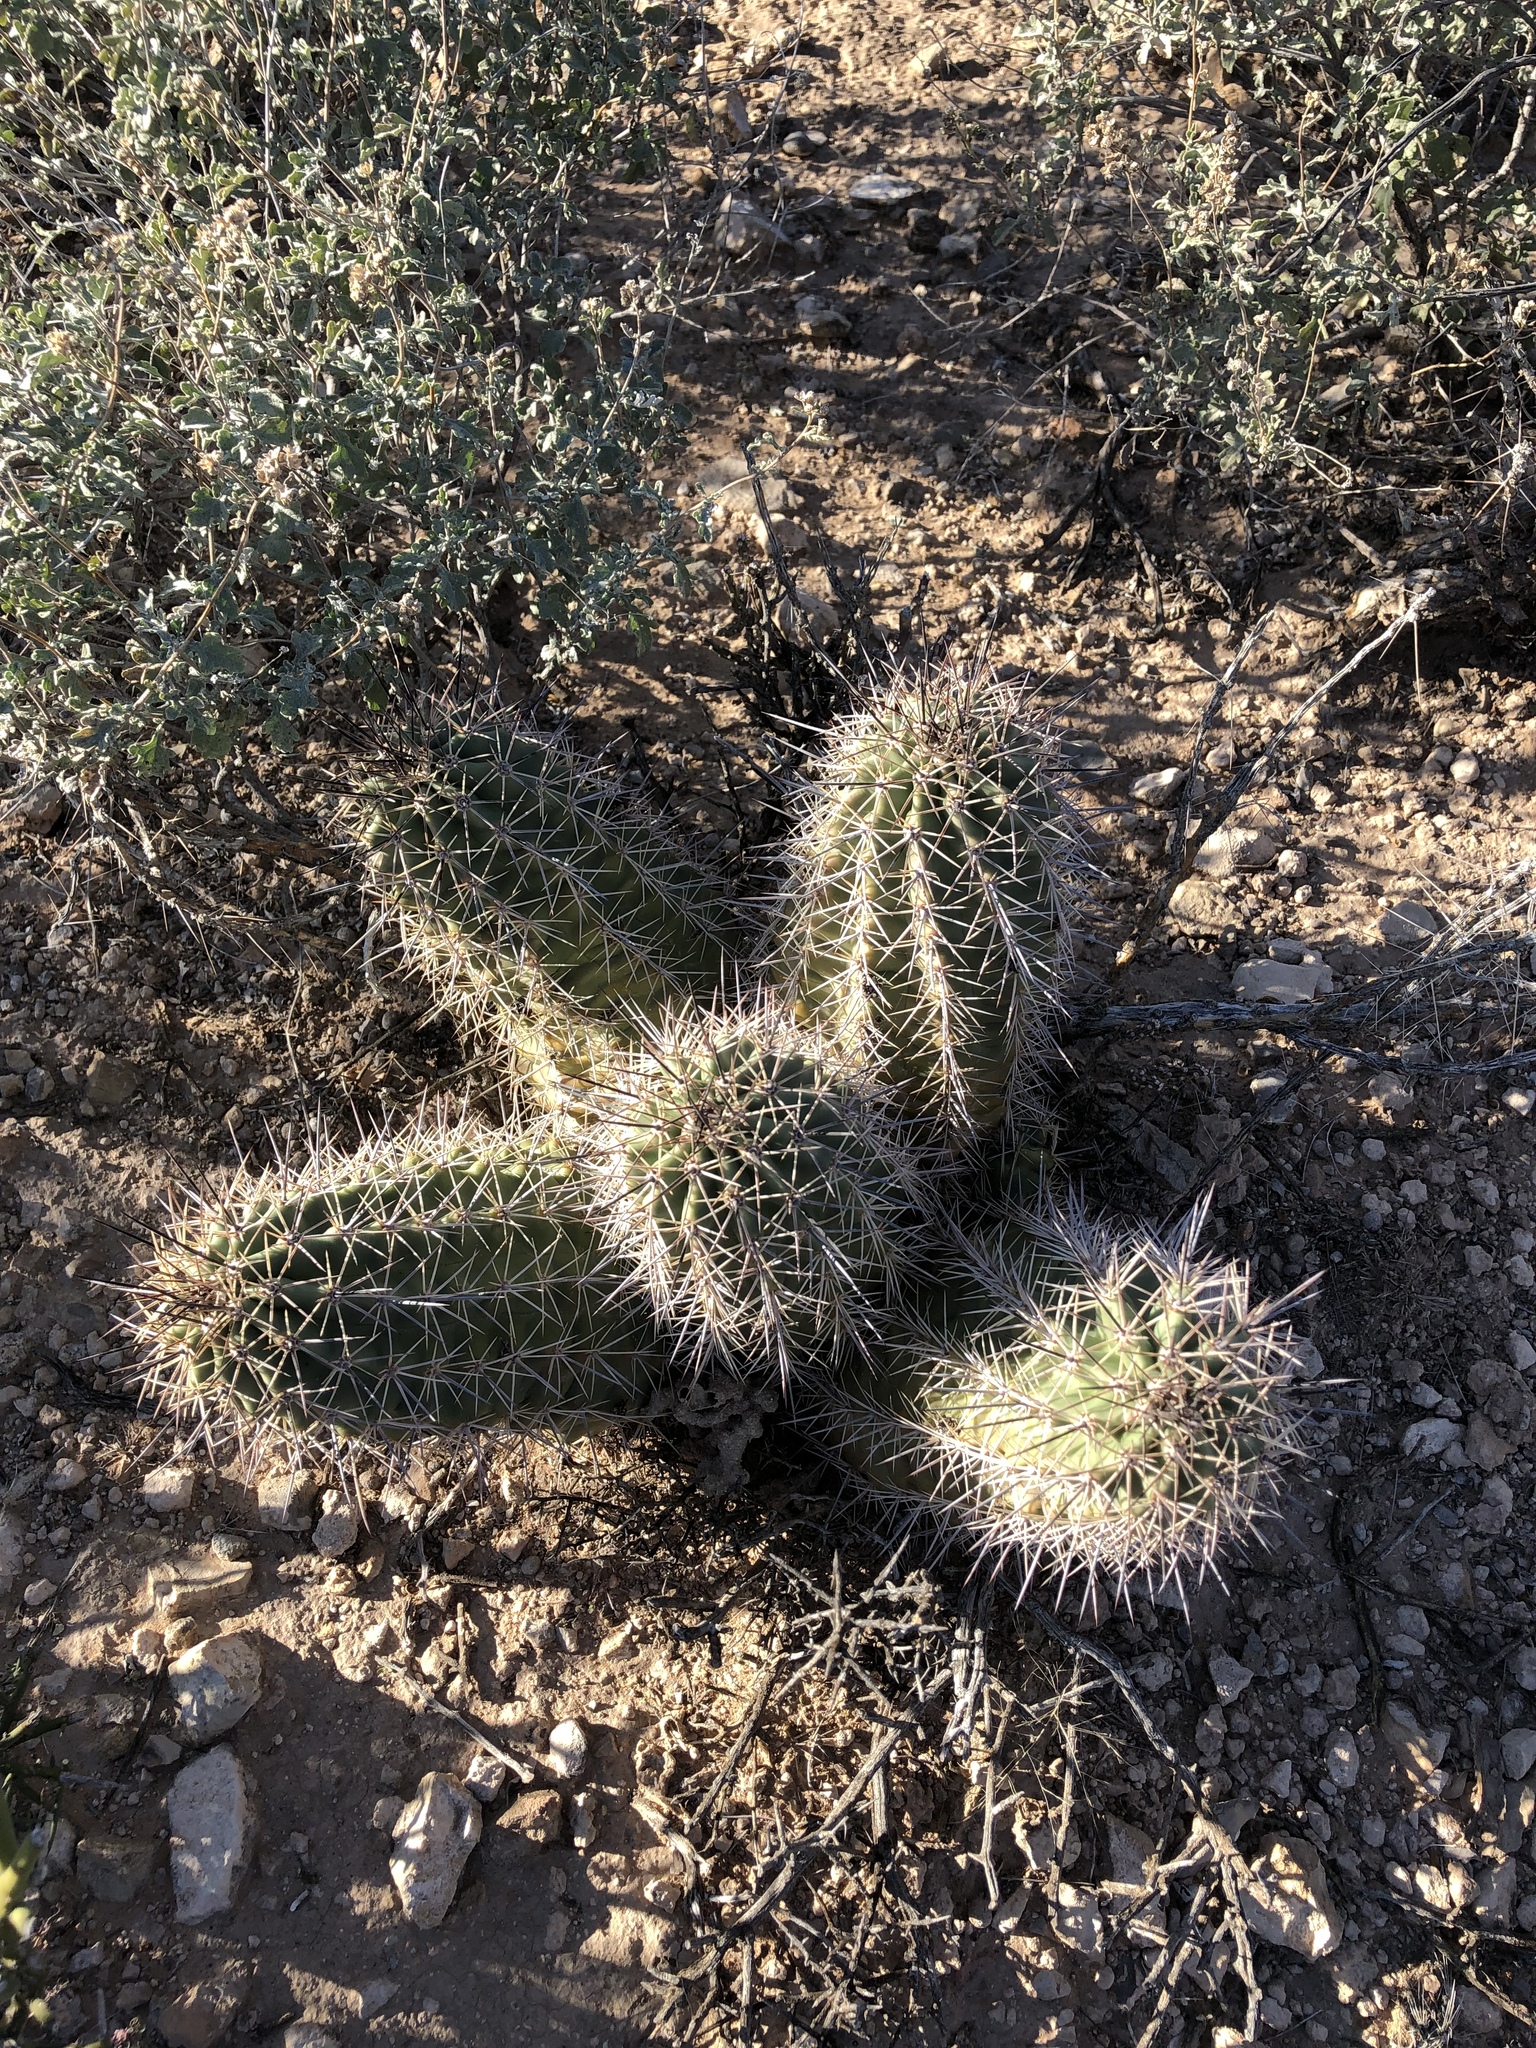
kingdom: Plantae
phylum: Tracheophyta
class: Magnoliopsida
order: Caryophyllales
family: Cactaceae
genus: Echinocereus
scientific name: Echinocereus coccineus
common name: Scarlet hedgehog cactus
